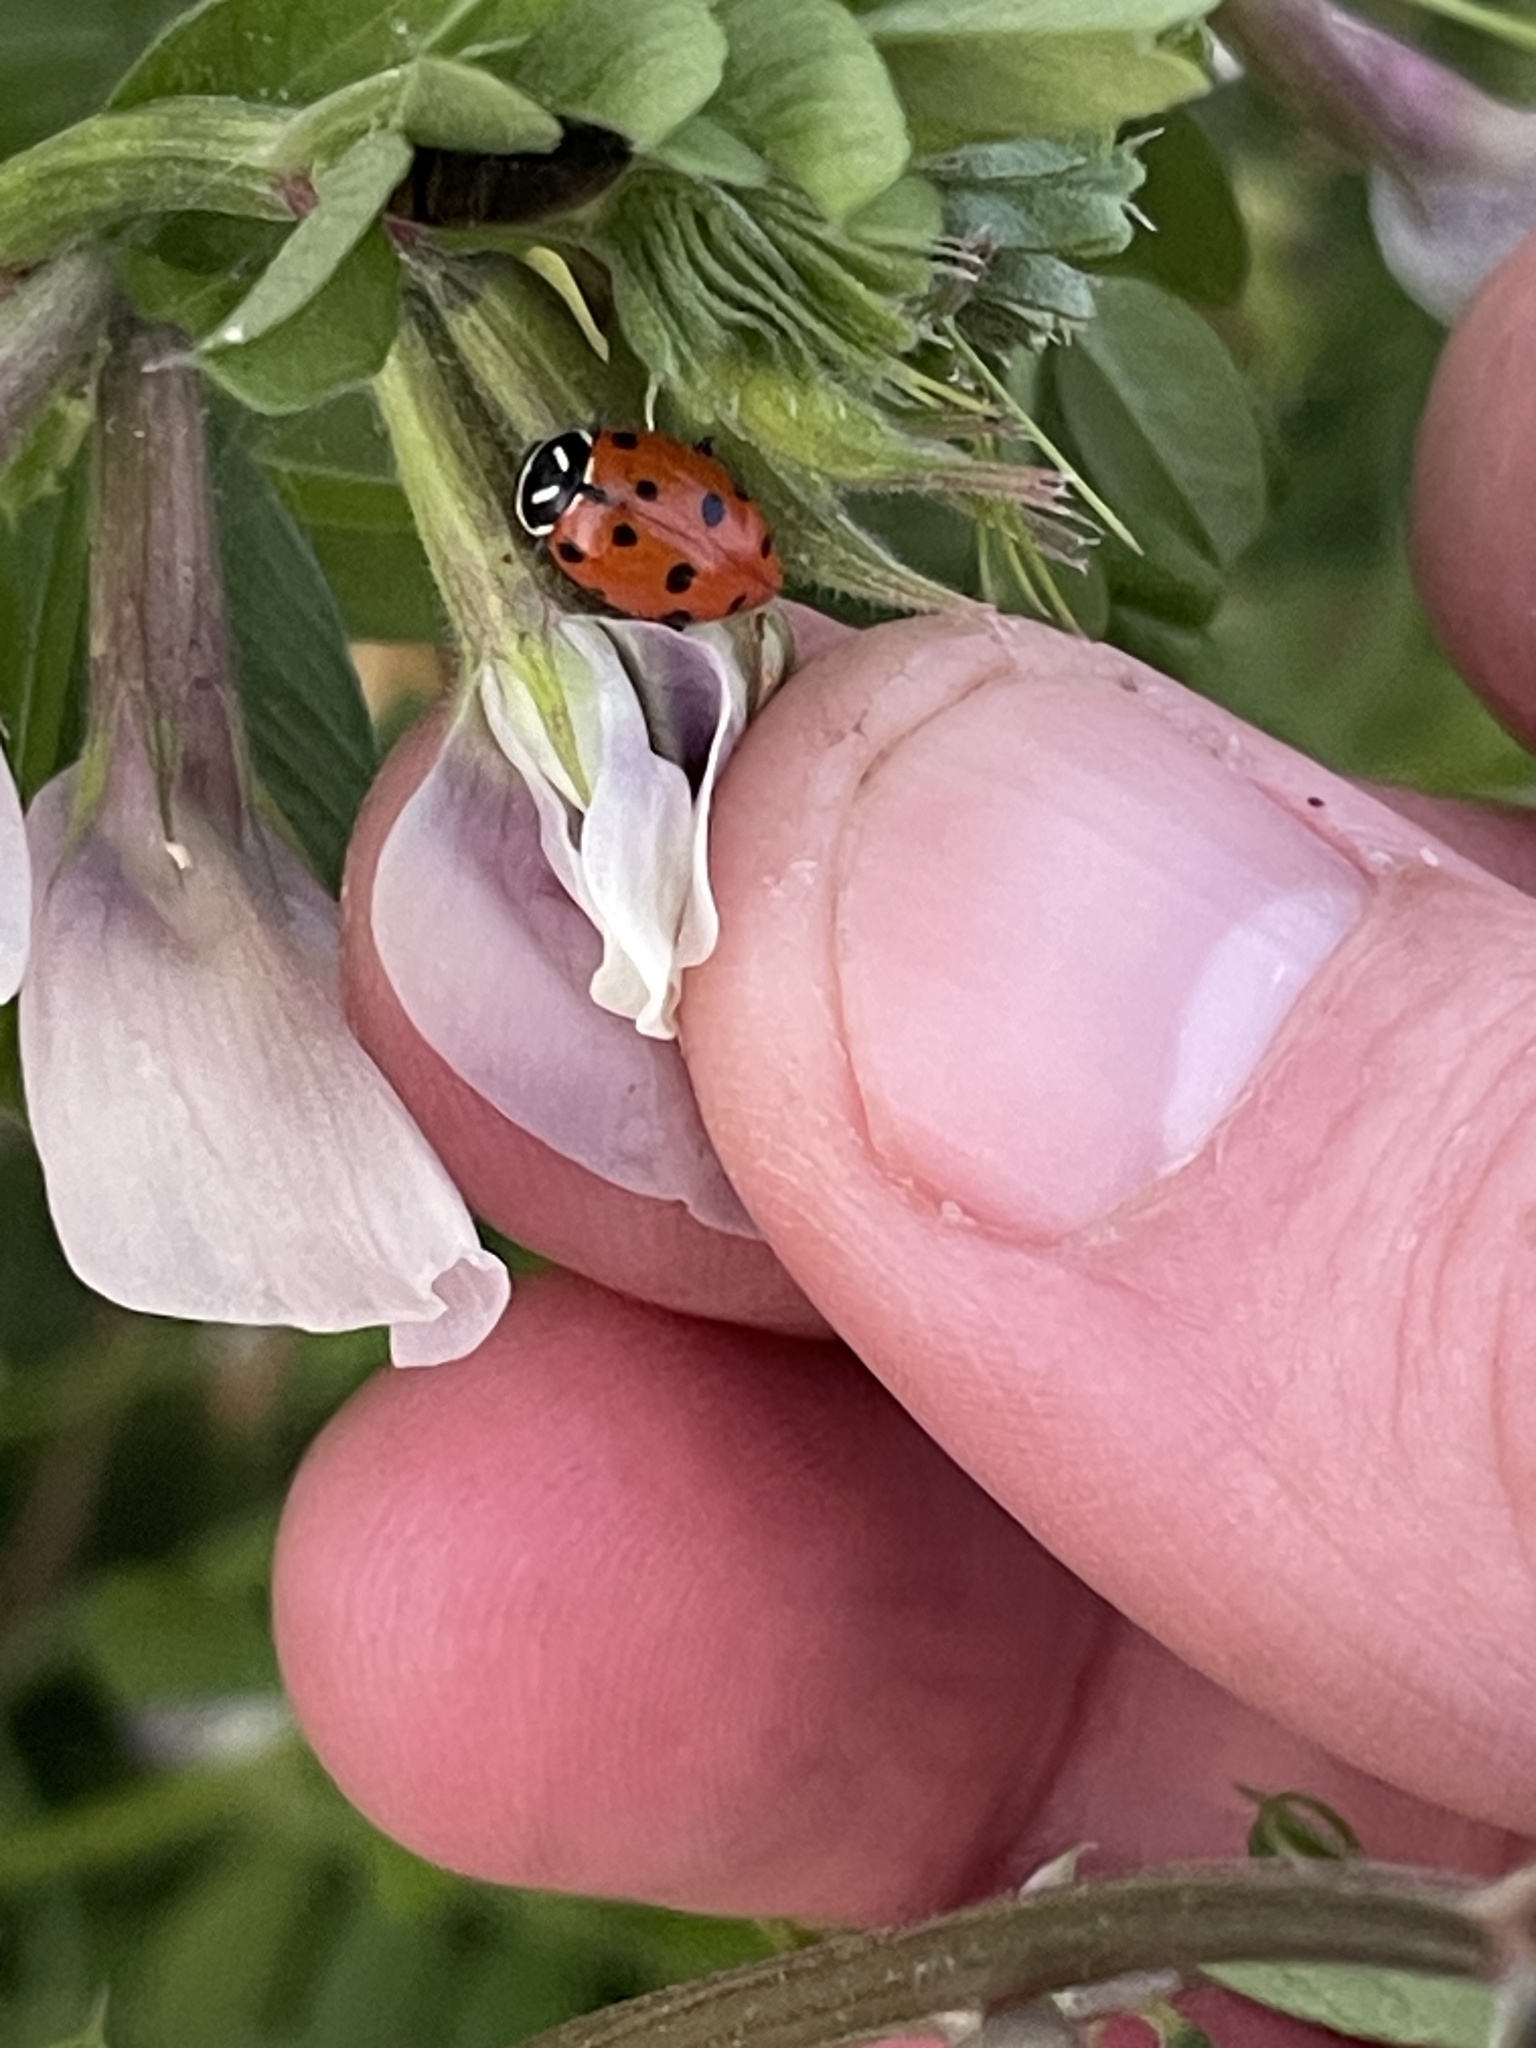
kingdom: Animalia
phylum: Arthropoda
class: Insecta
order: Coleoptera
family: Coccinellidae
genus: Hippodamia
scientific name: Hippodamia convergens
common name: Convergent lady beetle
